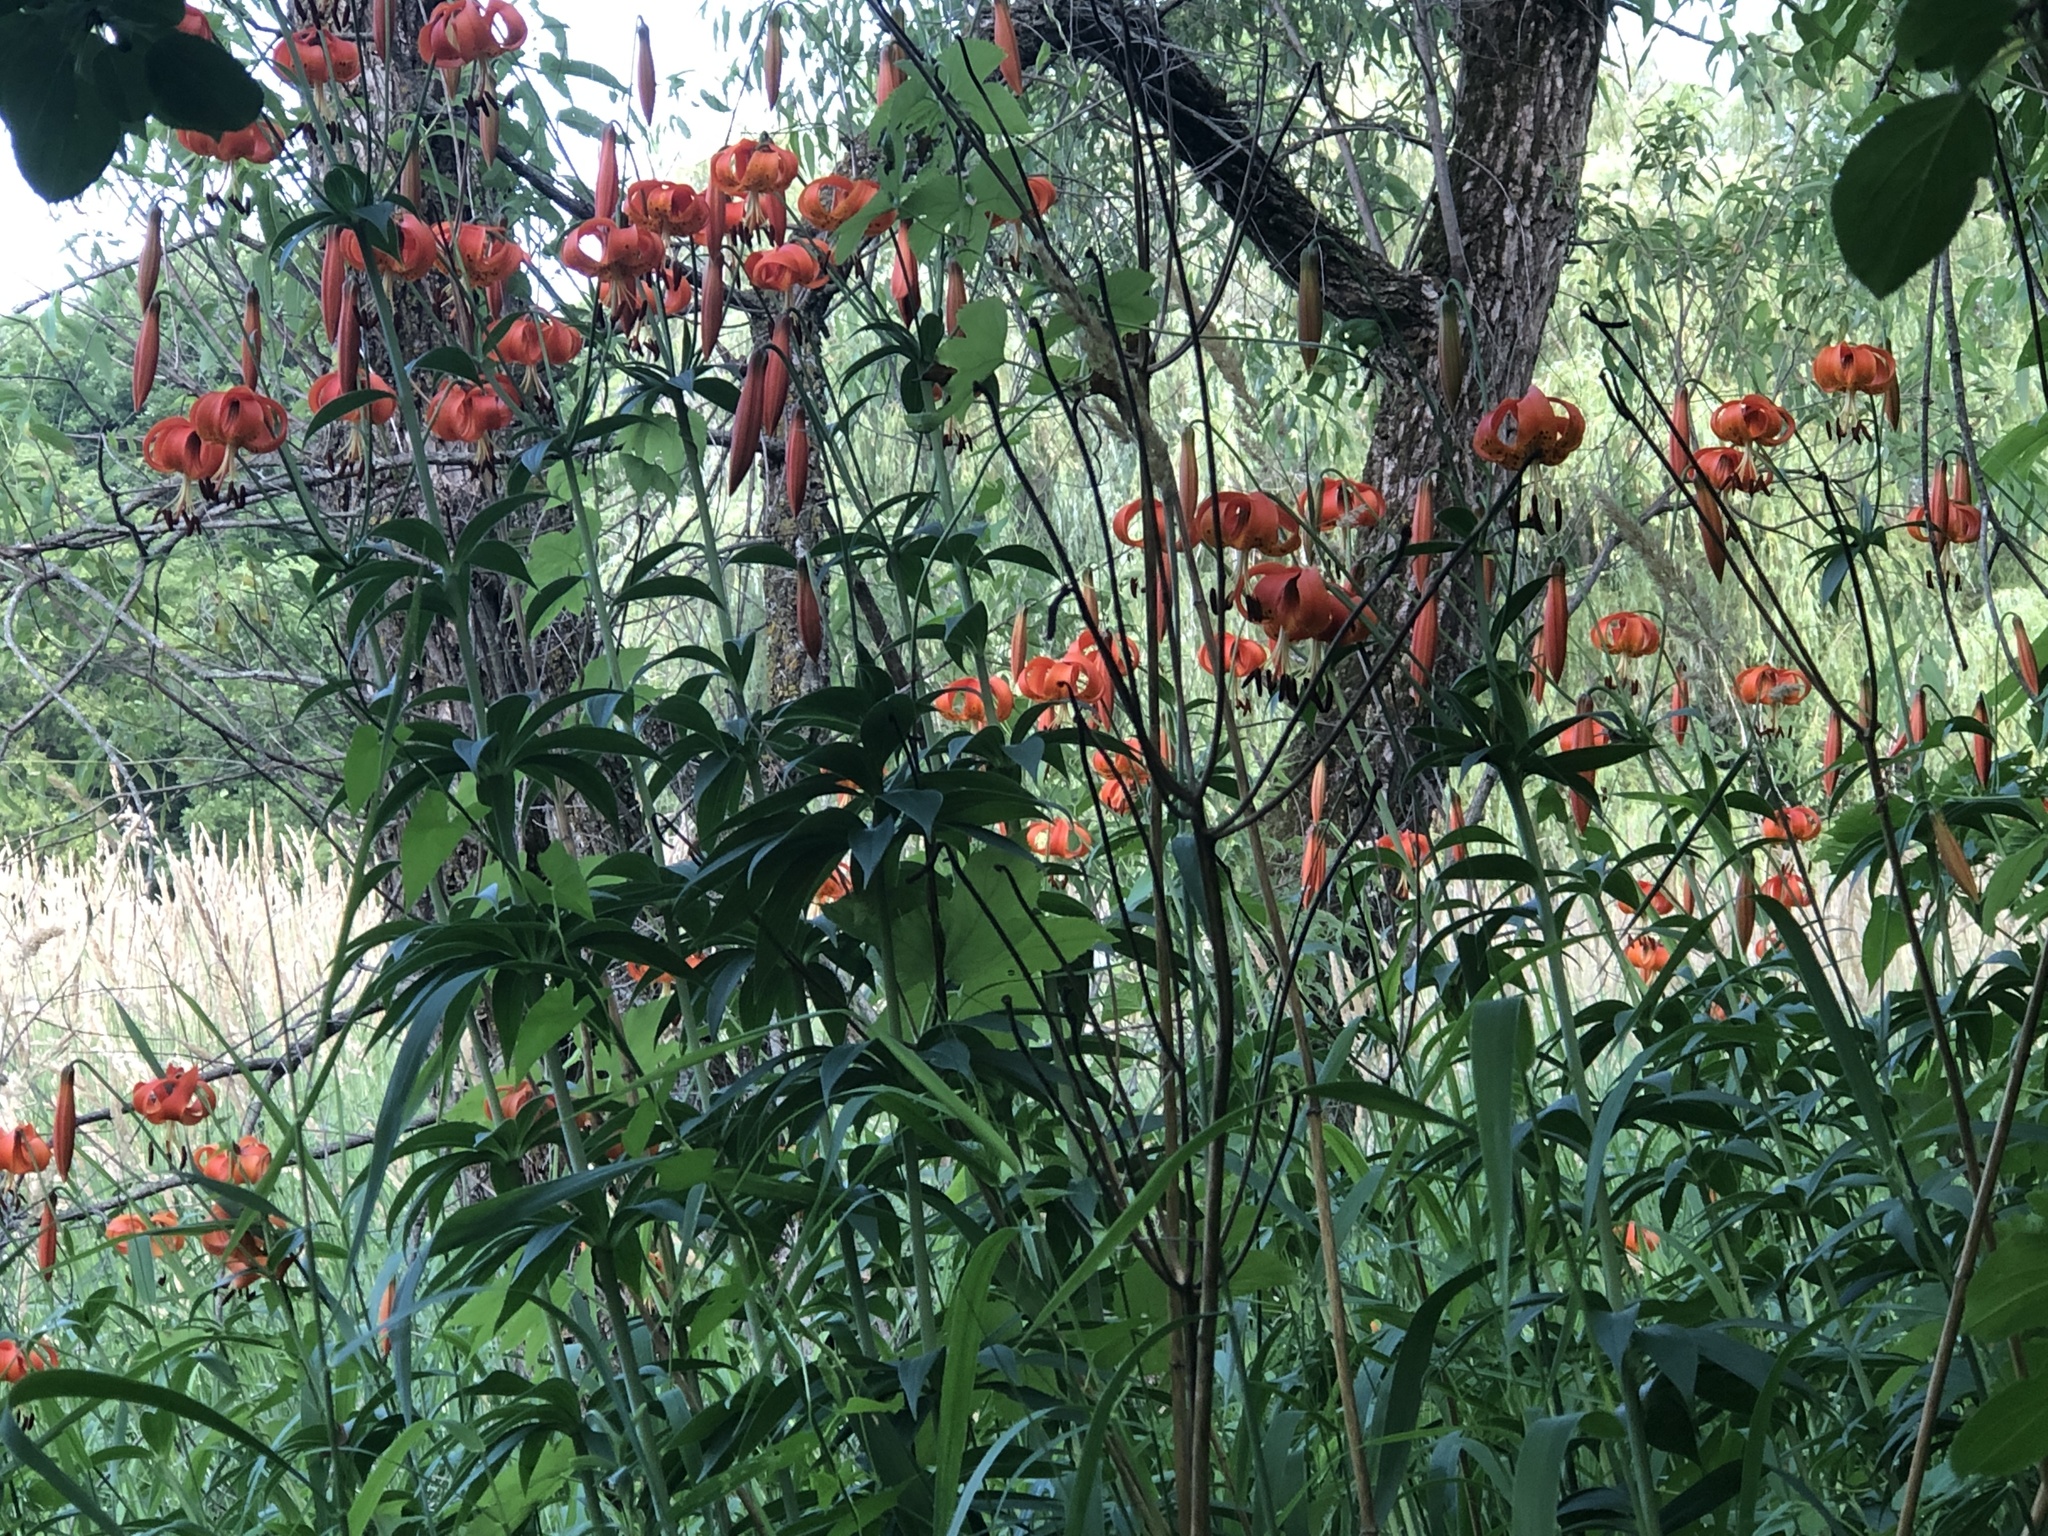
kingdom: Plantae
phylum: Tracheophyta
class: Liliopsida
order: Liliales
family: Liliaceae
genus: Lilium
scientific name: Lilium michiganense
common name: Michigan lily
